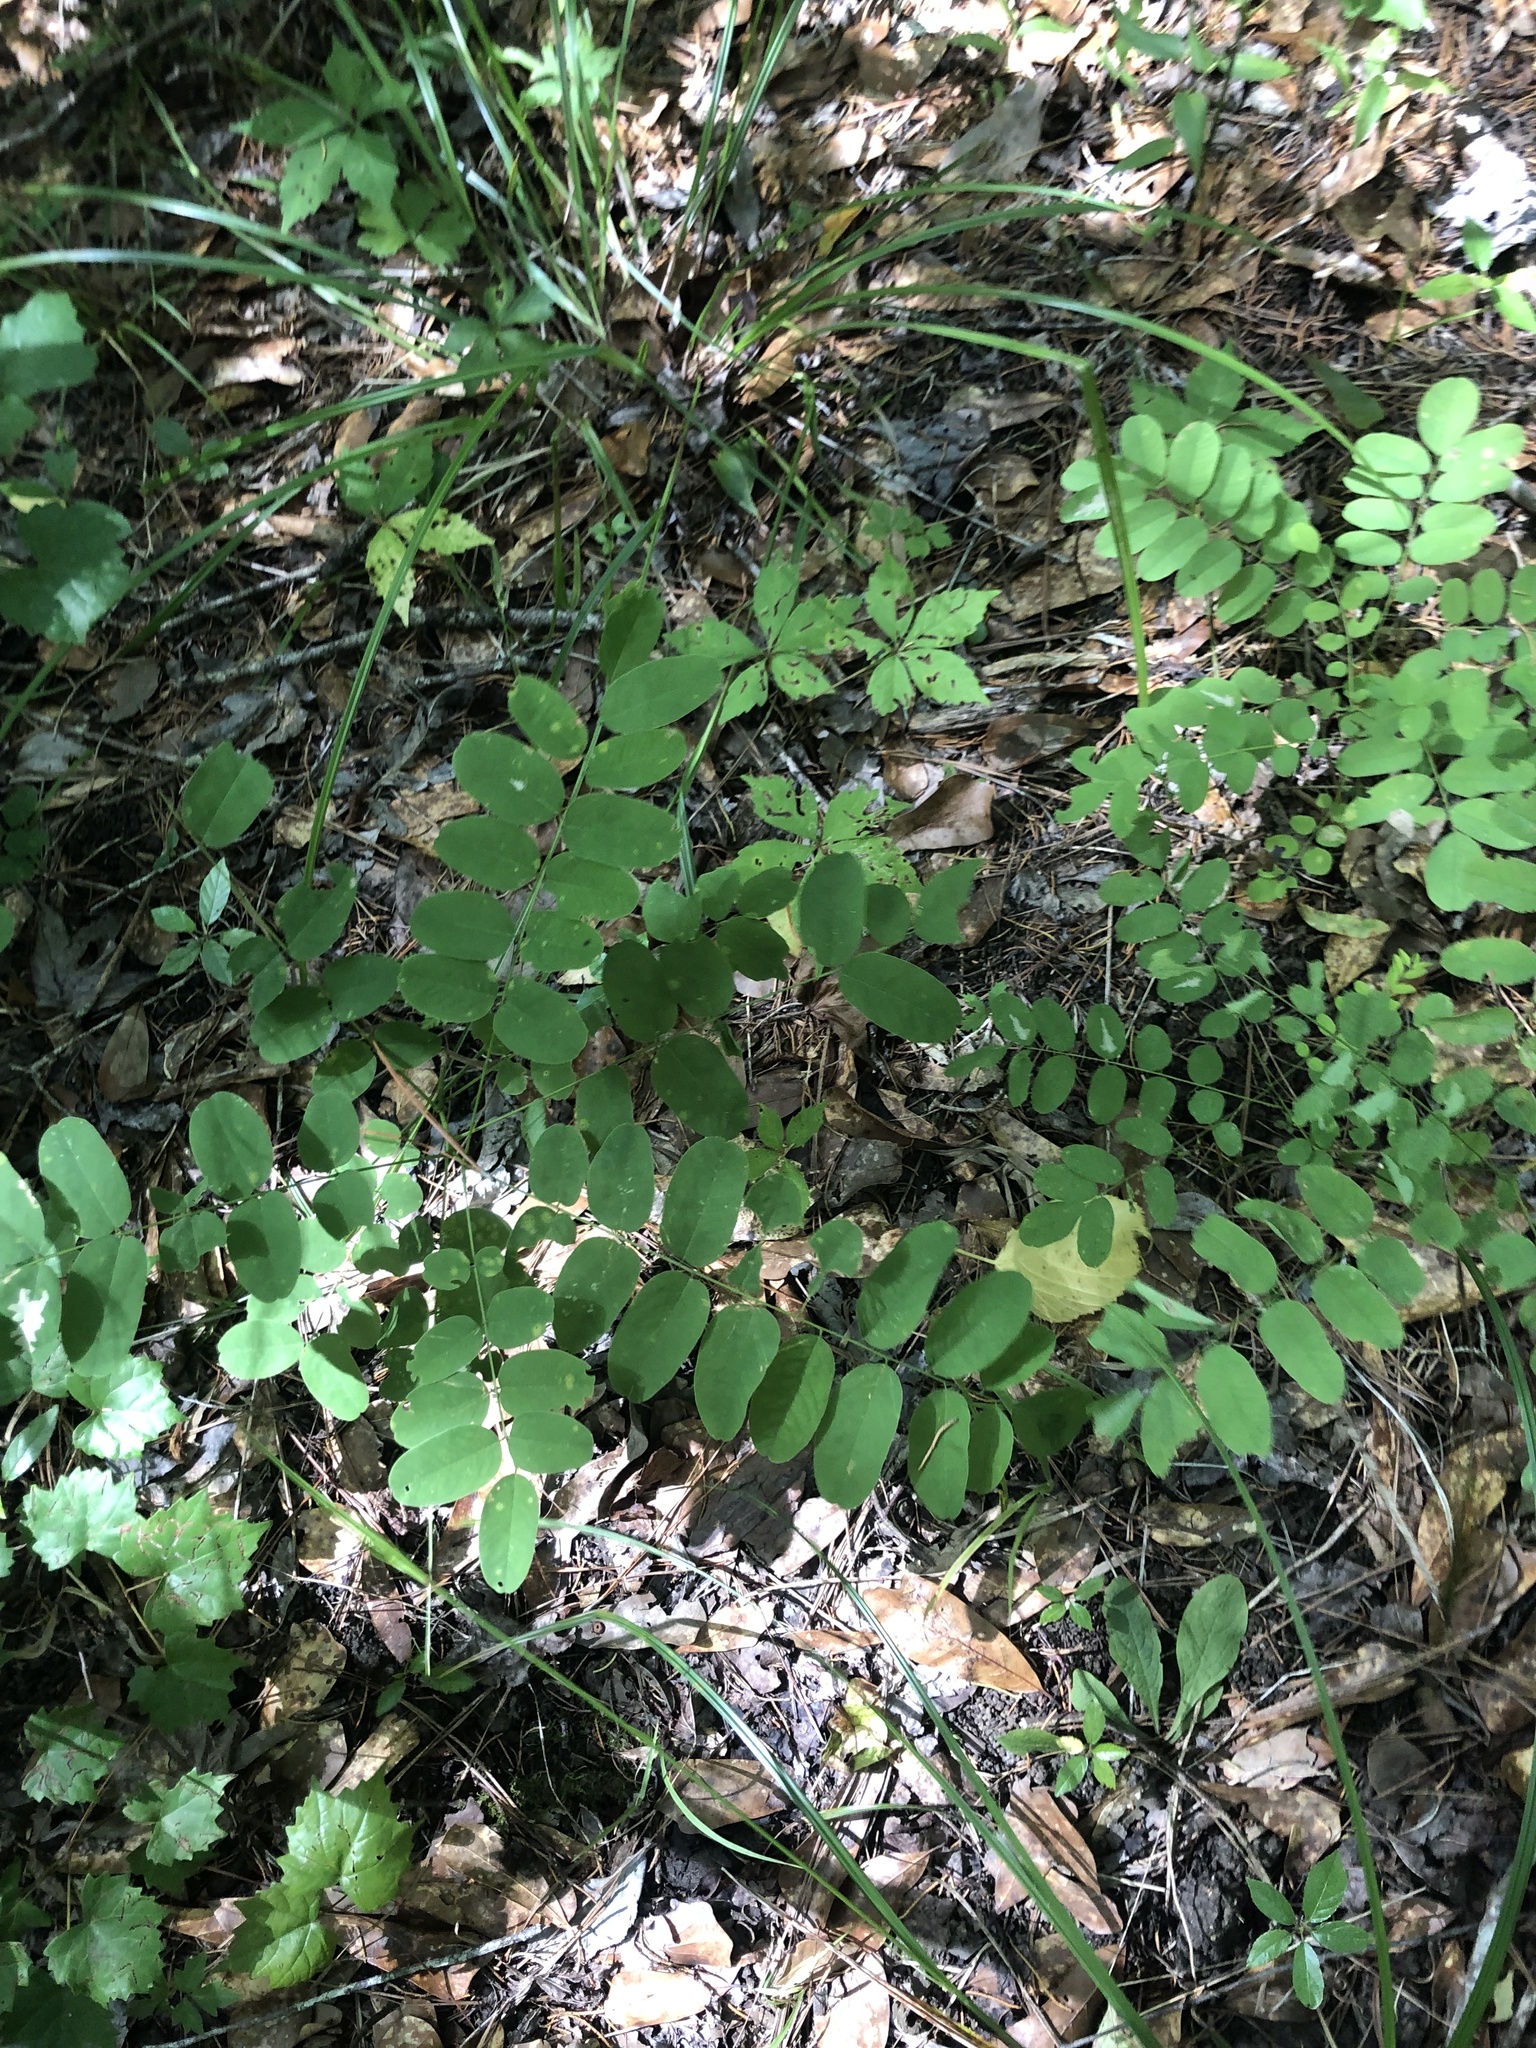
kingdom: Plantae
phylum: Tracheophyta
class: Magnoliopsida
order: Fabales
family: Fabaceae
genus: Amorpha
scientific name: Amorpha fruticosa
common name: False indigo
